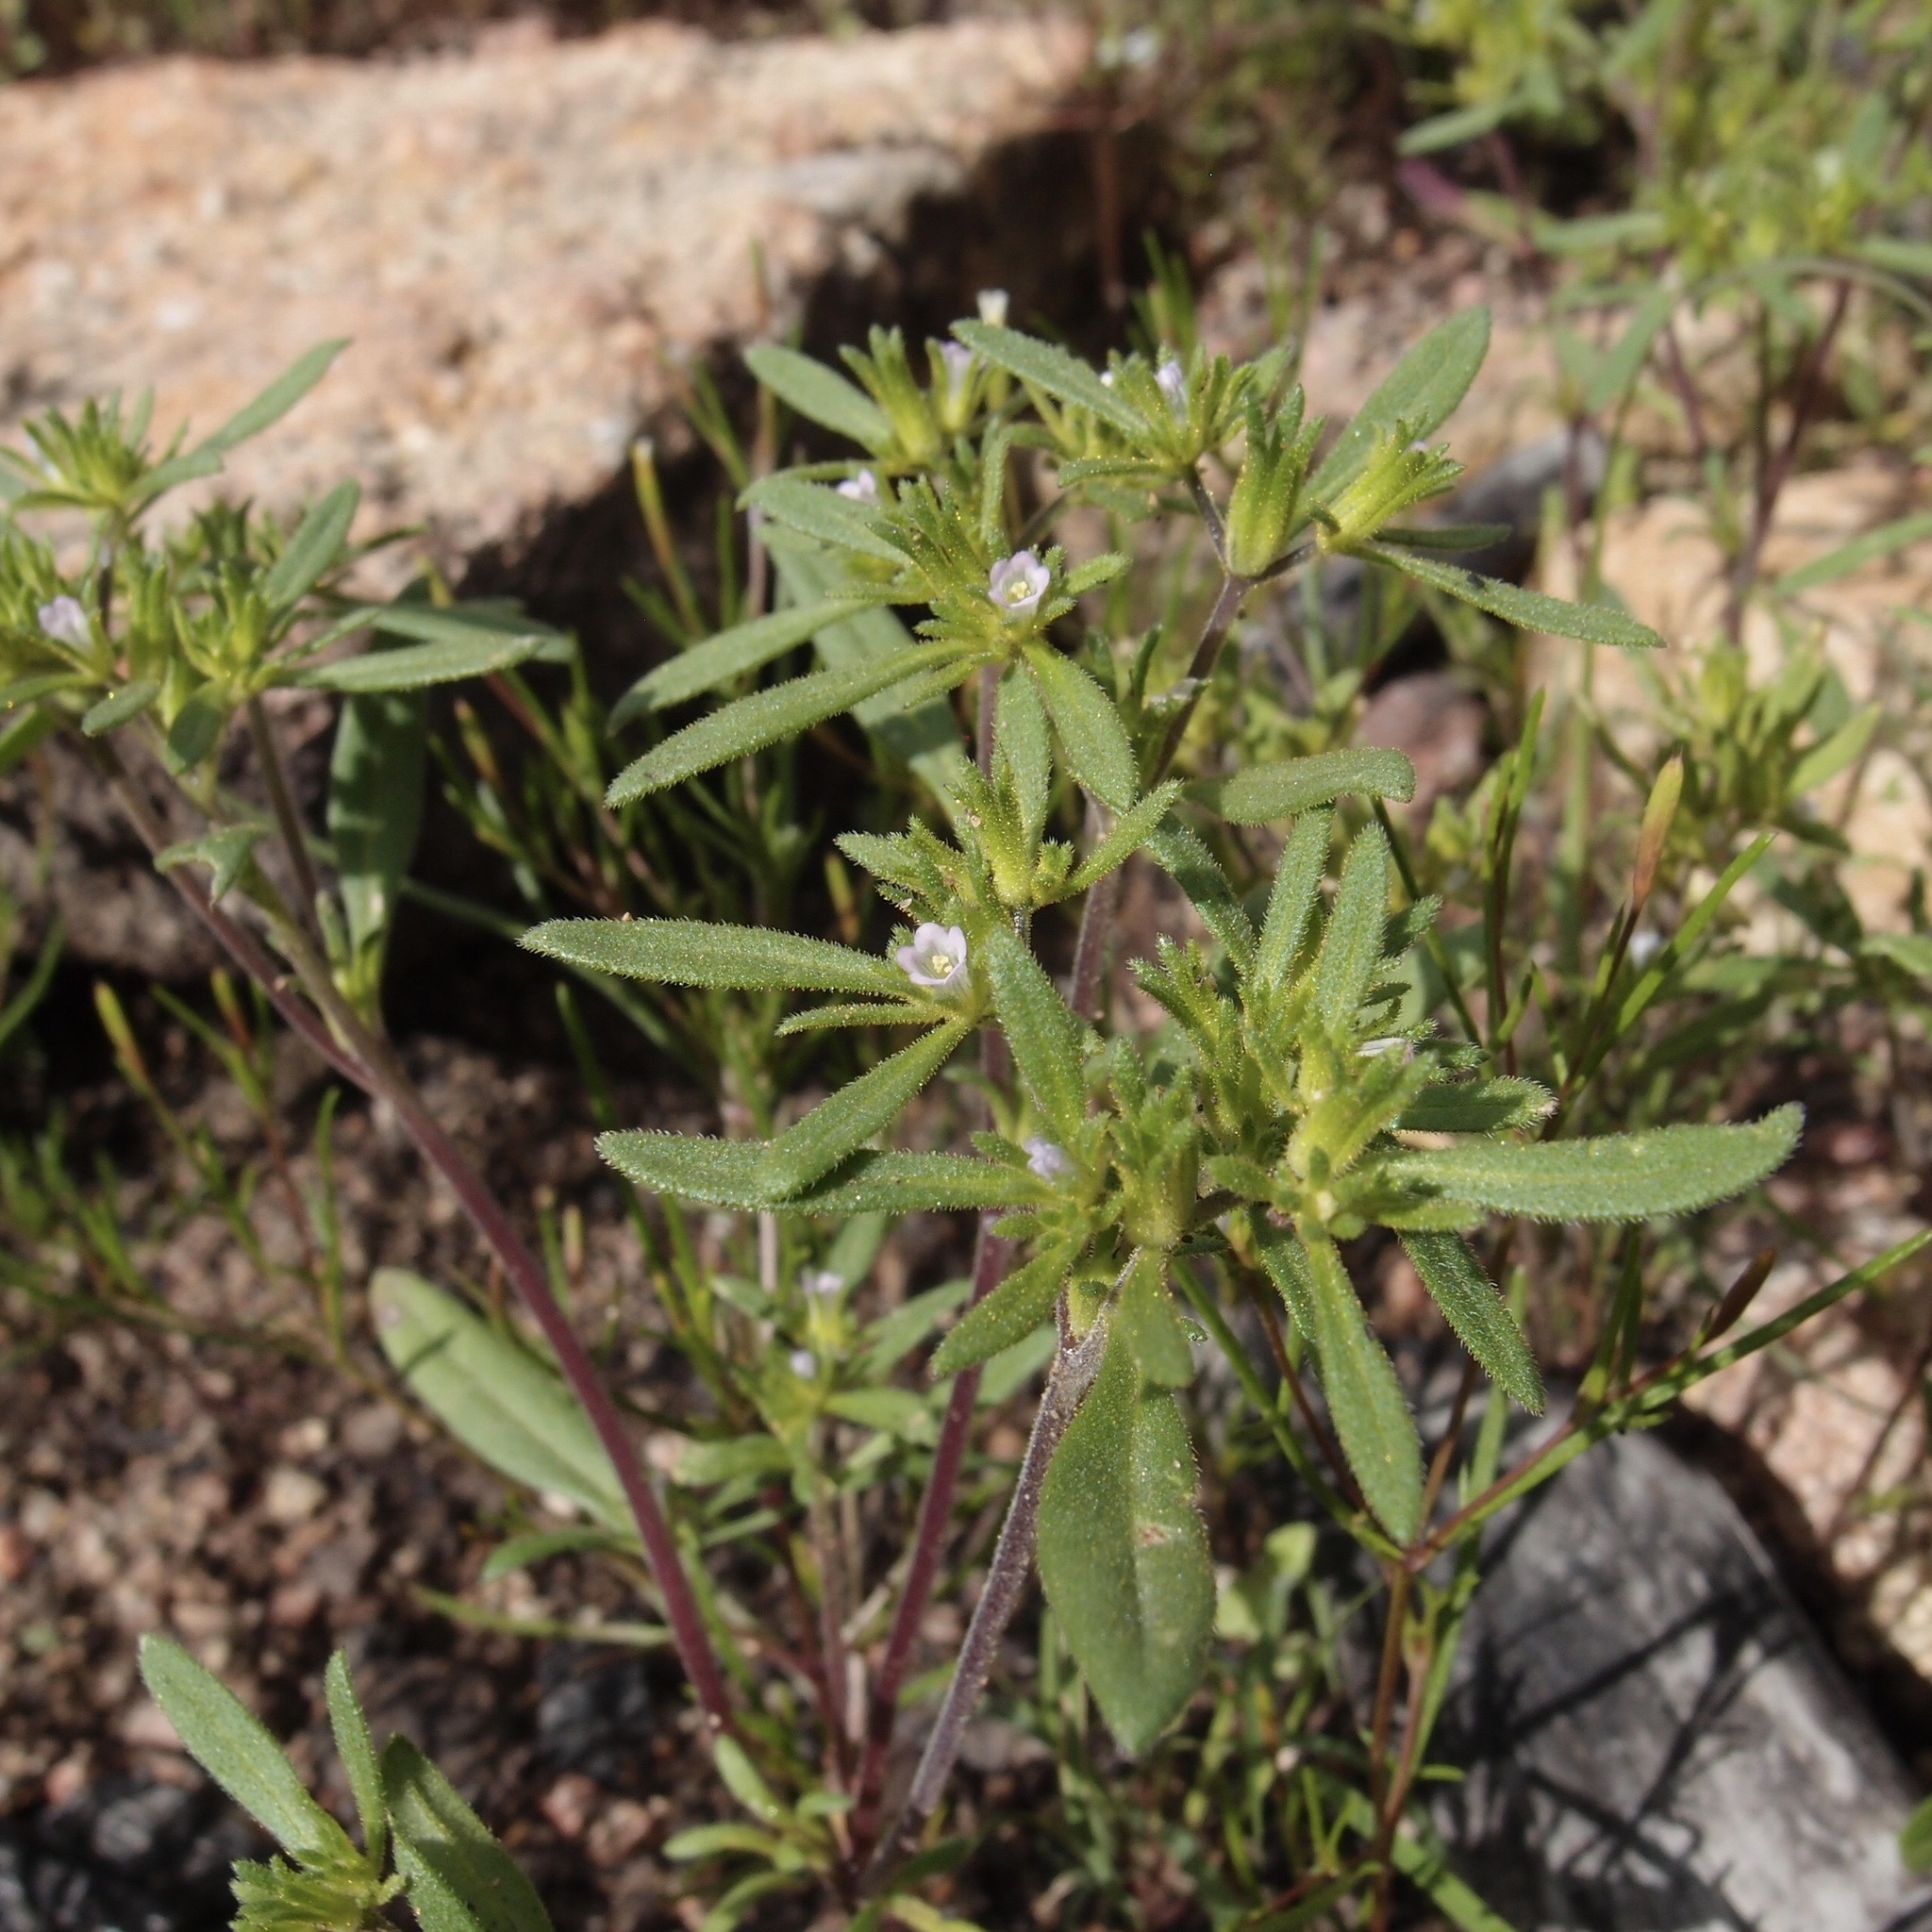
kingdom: Plantae
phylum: Tracheophyta
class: Magnoliopsida
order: Boraginales
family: Namaceae
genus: Nama
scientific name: Nama dichotoma
